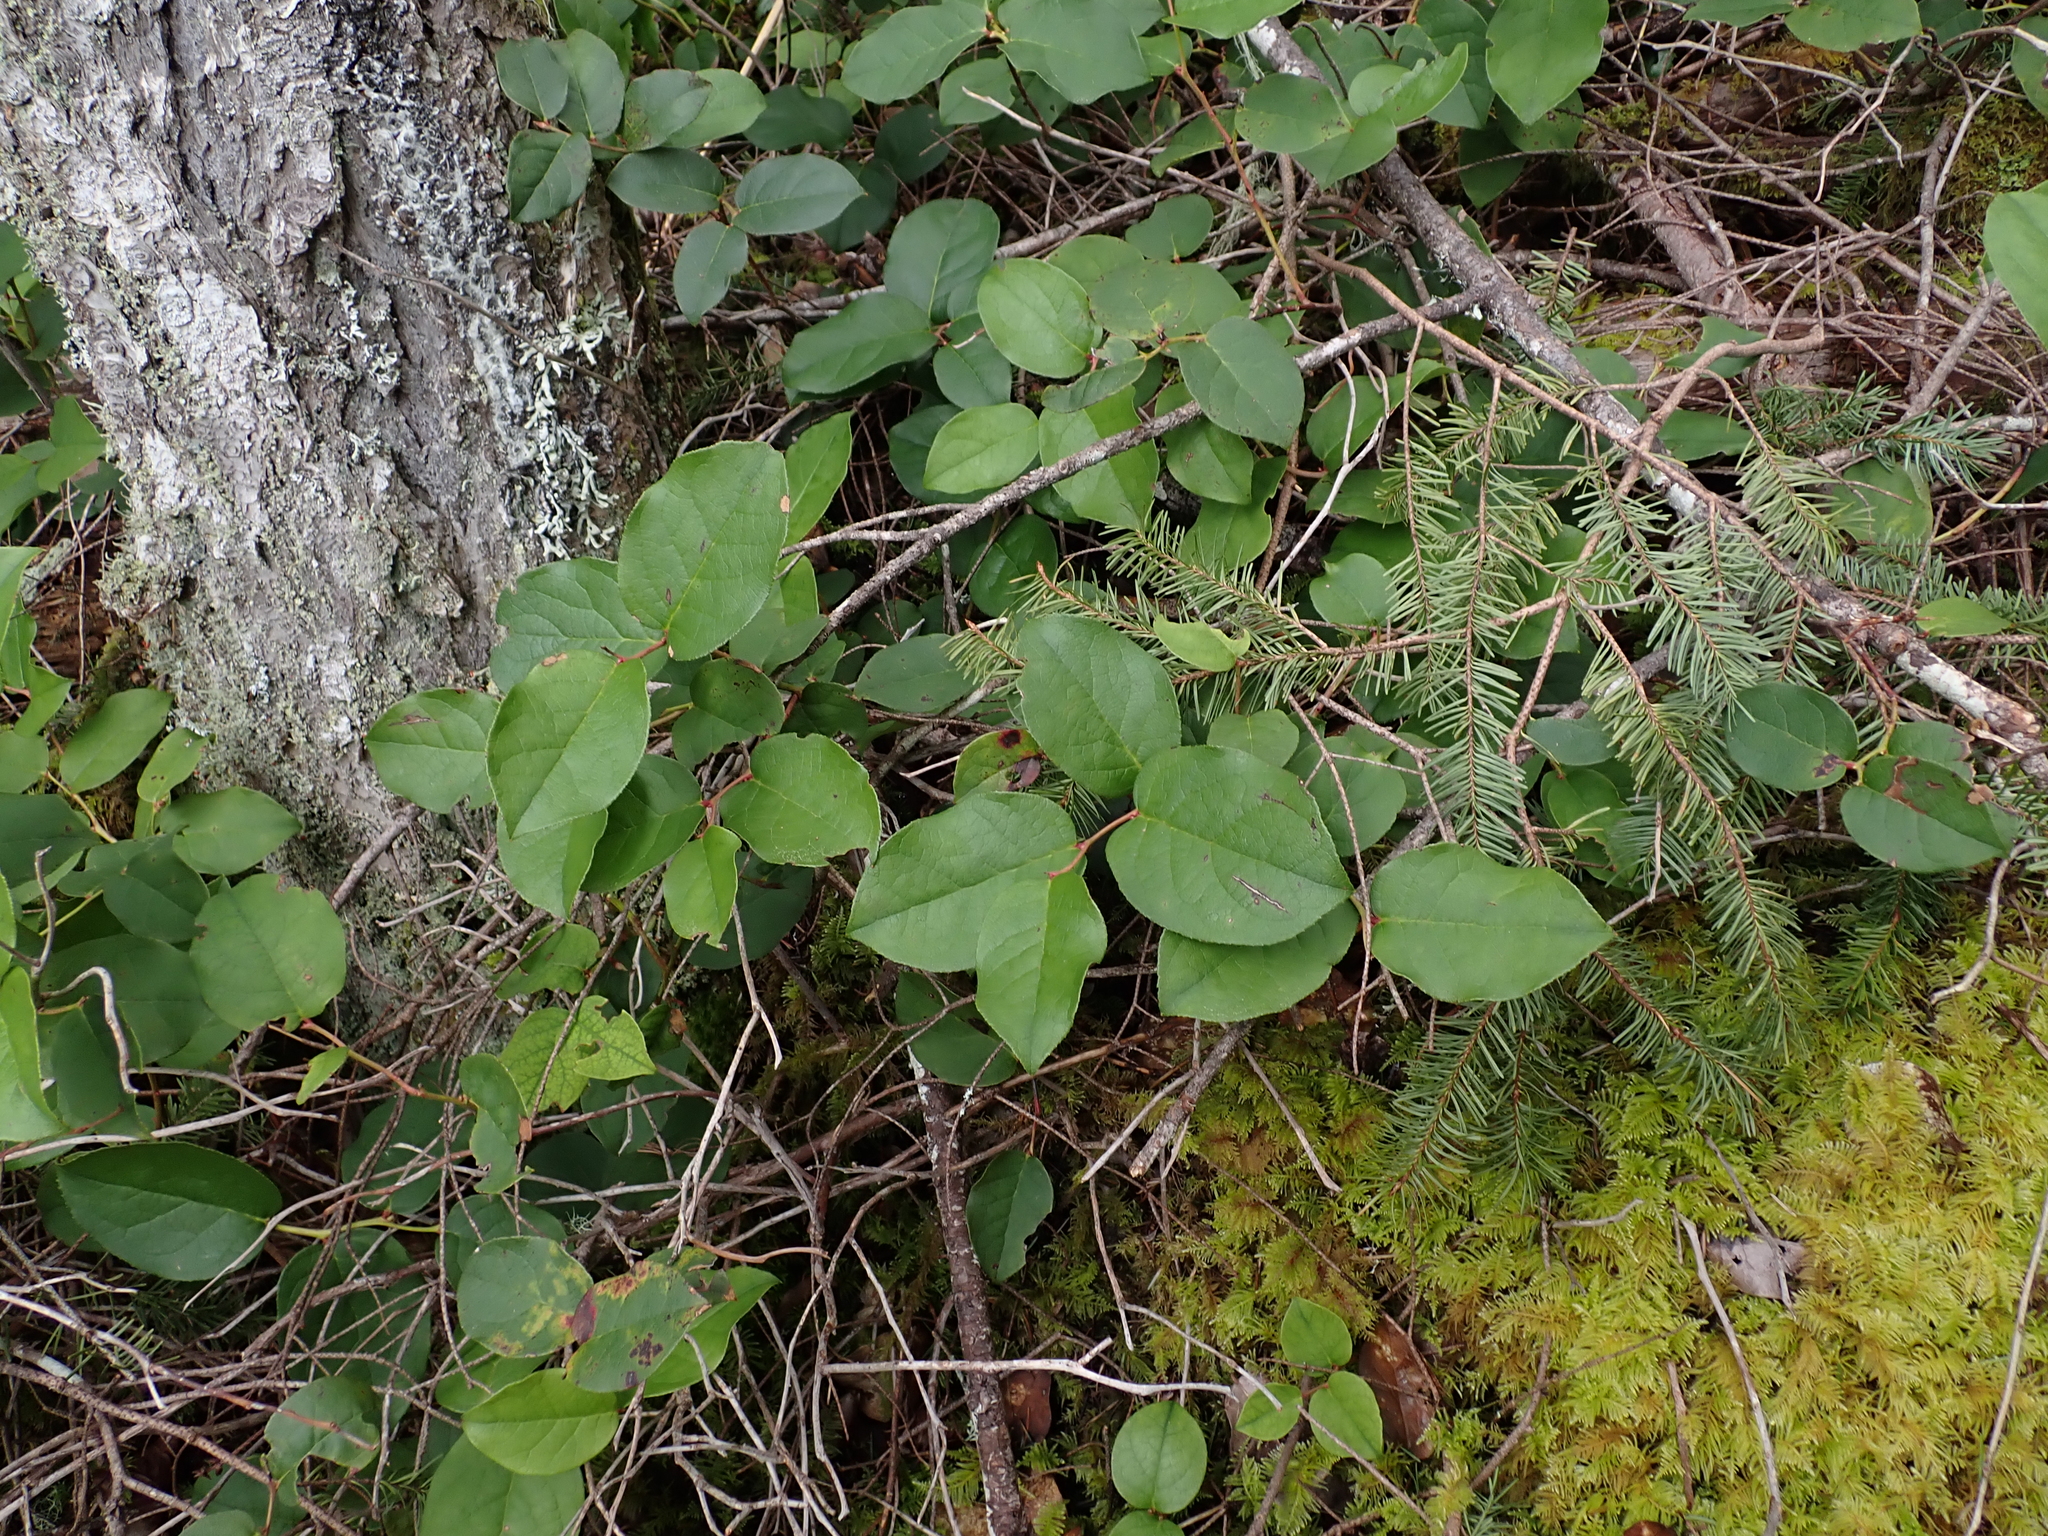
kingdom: Plantae
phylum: Tracheophyta
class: Magnoliopsida
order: Ericales
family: Ericaceae
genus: Gaultheria
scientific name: Gaultheria shallon
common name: Shallon
